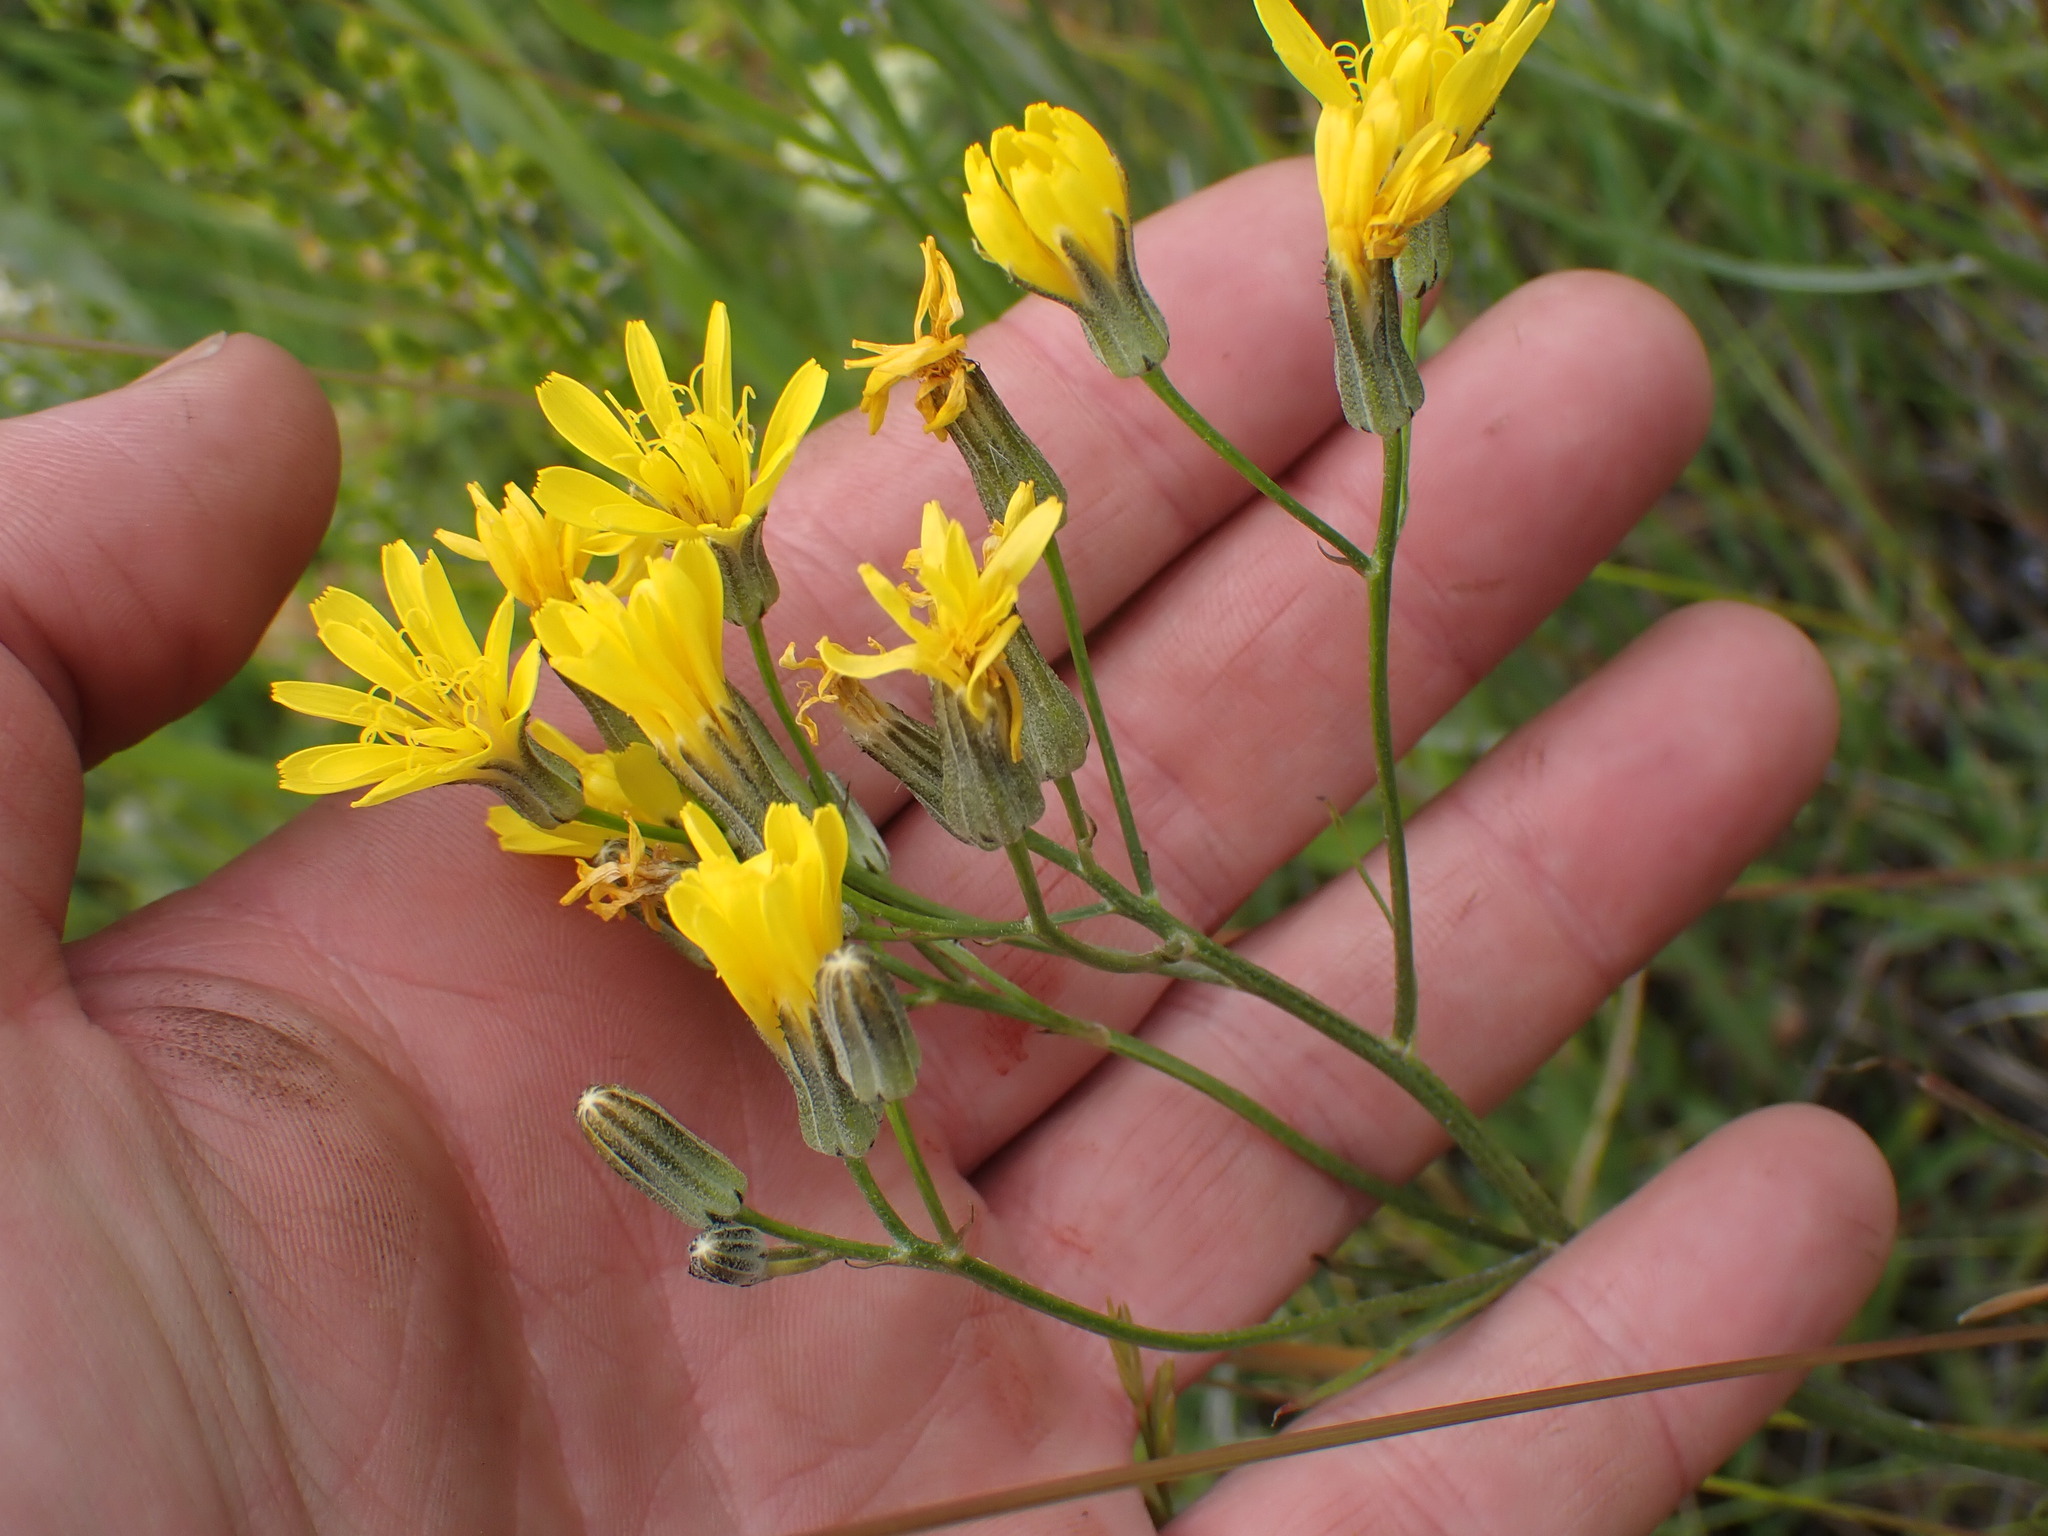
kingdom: Plantae
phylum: Tracheophyta
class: Magnoliopsida
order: Asterales
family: Asteraceae
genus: Crepis
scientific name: Crepis atribarba
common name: Dark hawk's-beard
